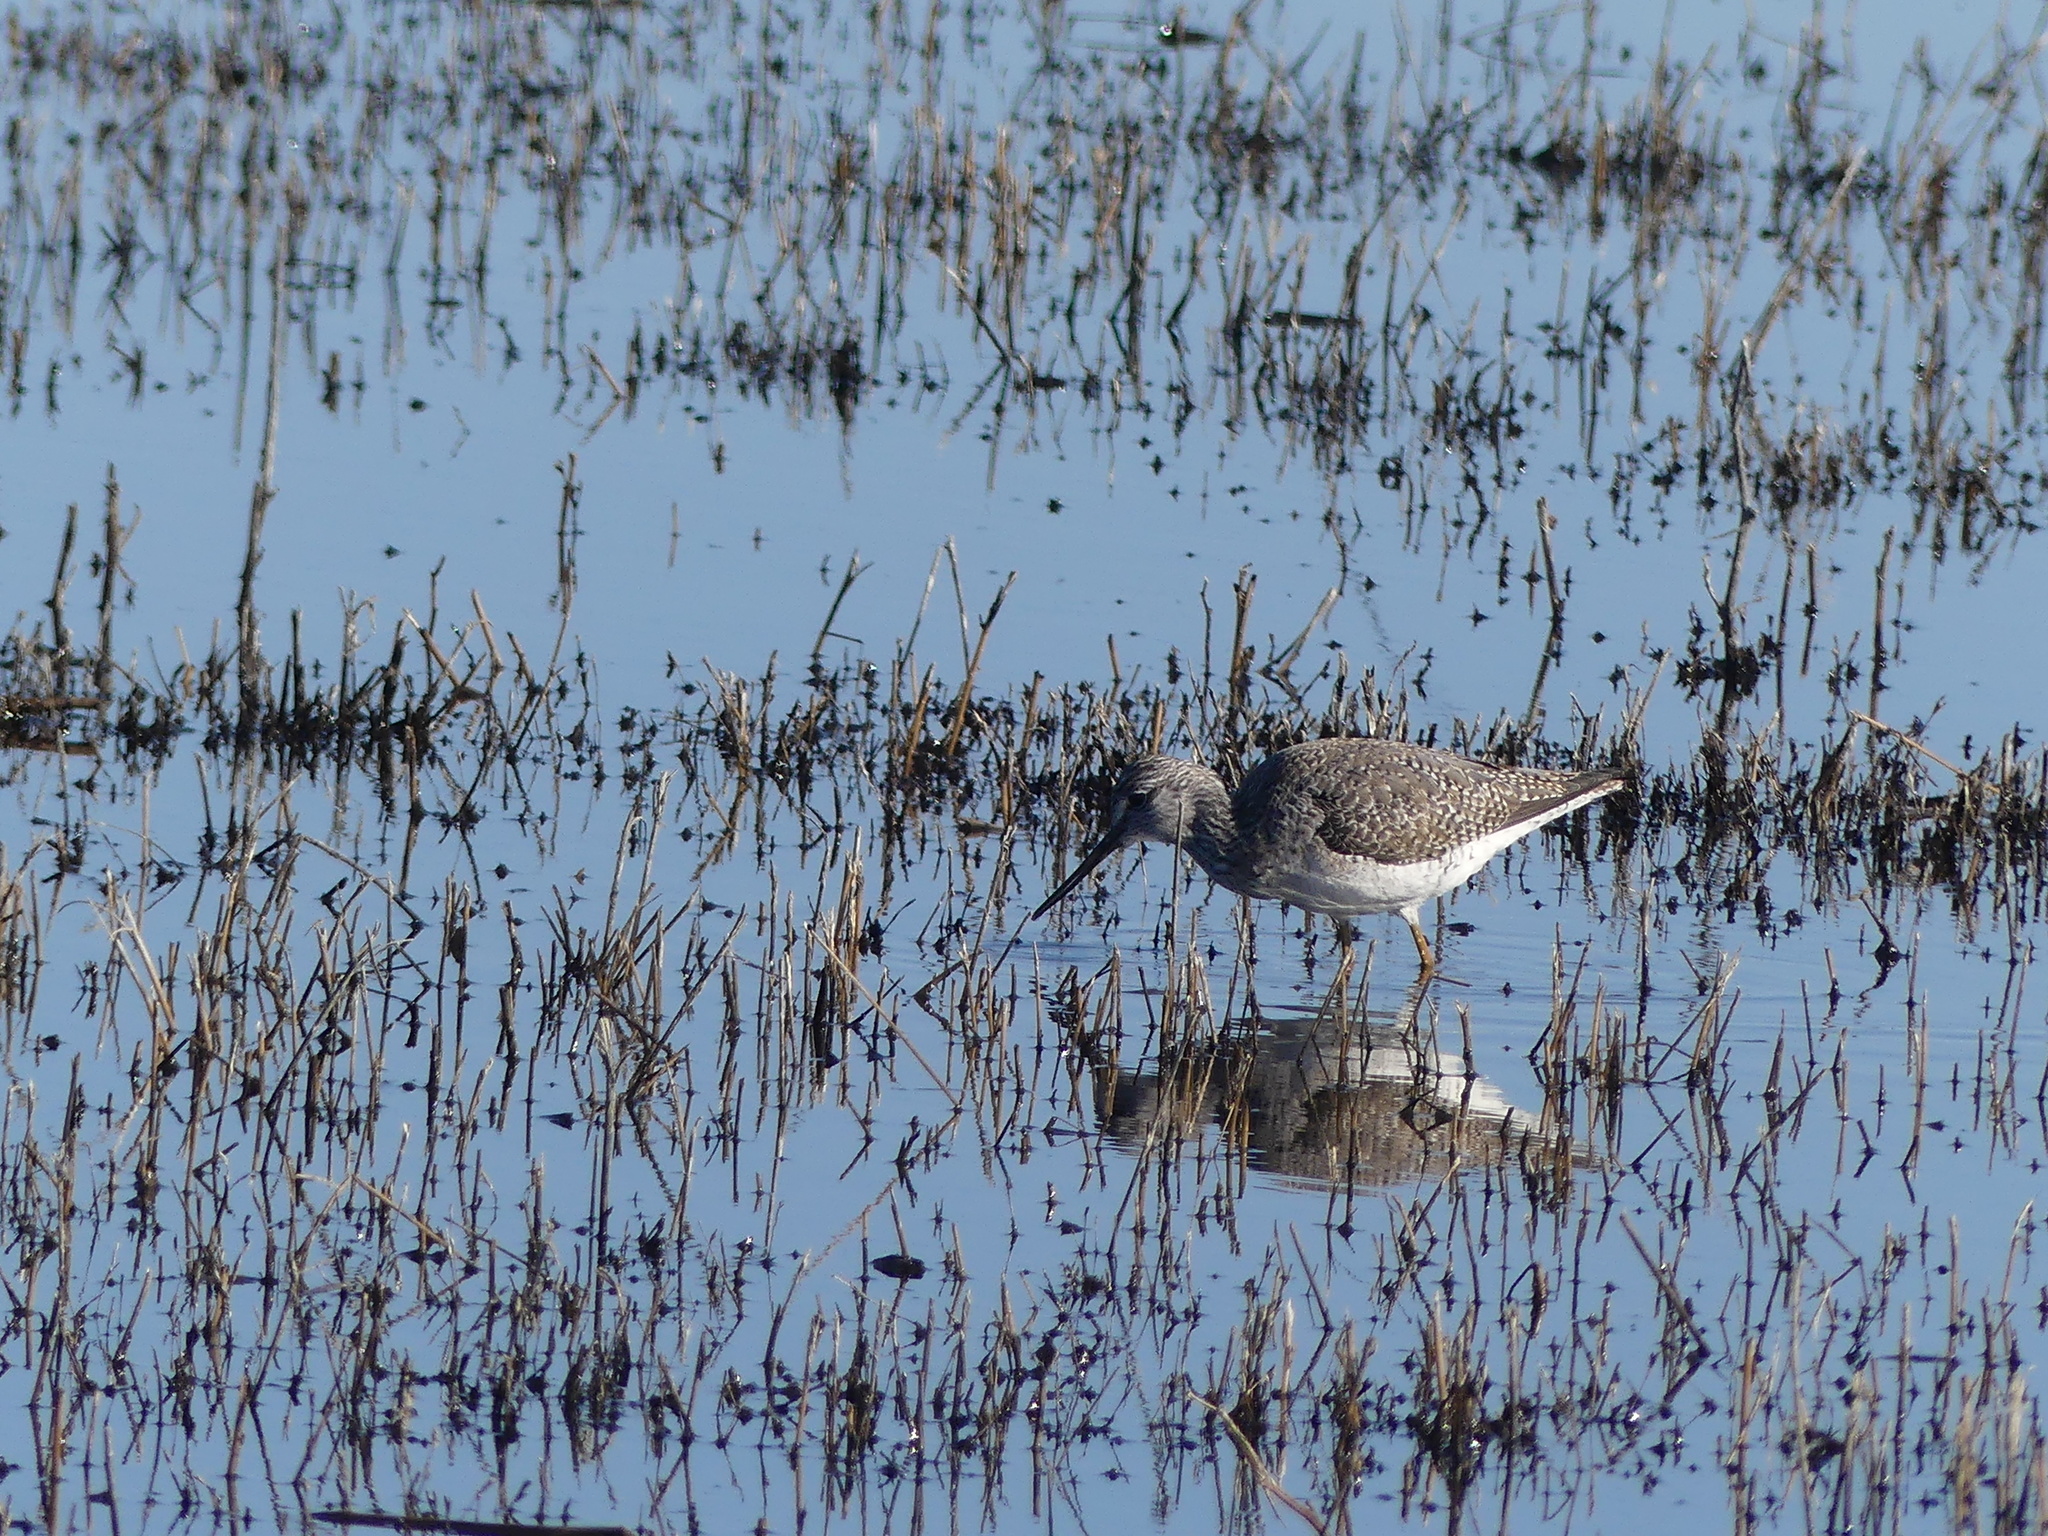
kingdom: Animalia
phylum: Chordata
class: Aves
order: Charadriiformes
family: Scolopacidae
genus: Tringa
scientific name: Tringa melanoleuca
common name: Greater yellowlegs
